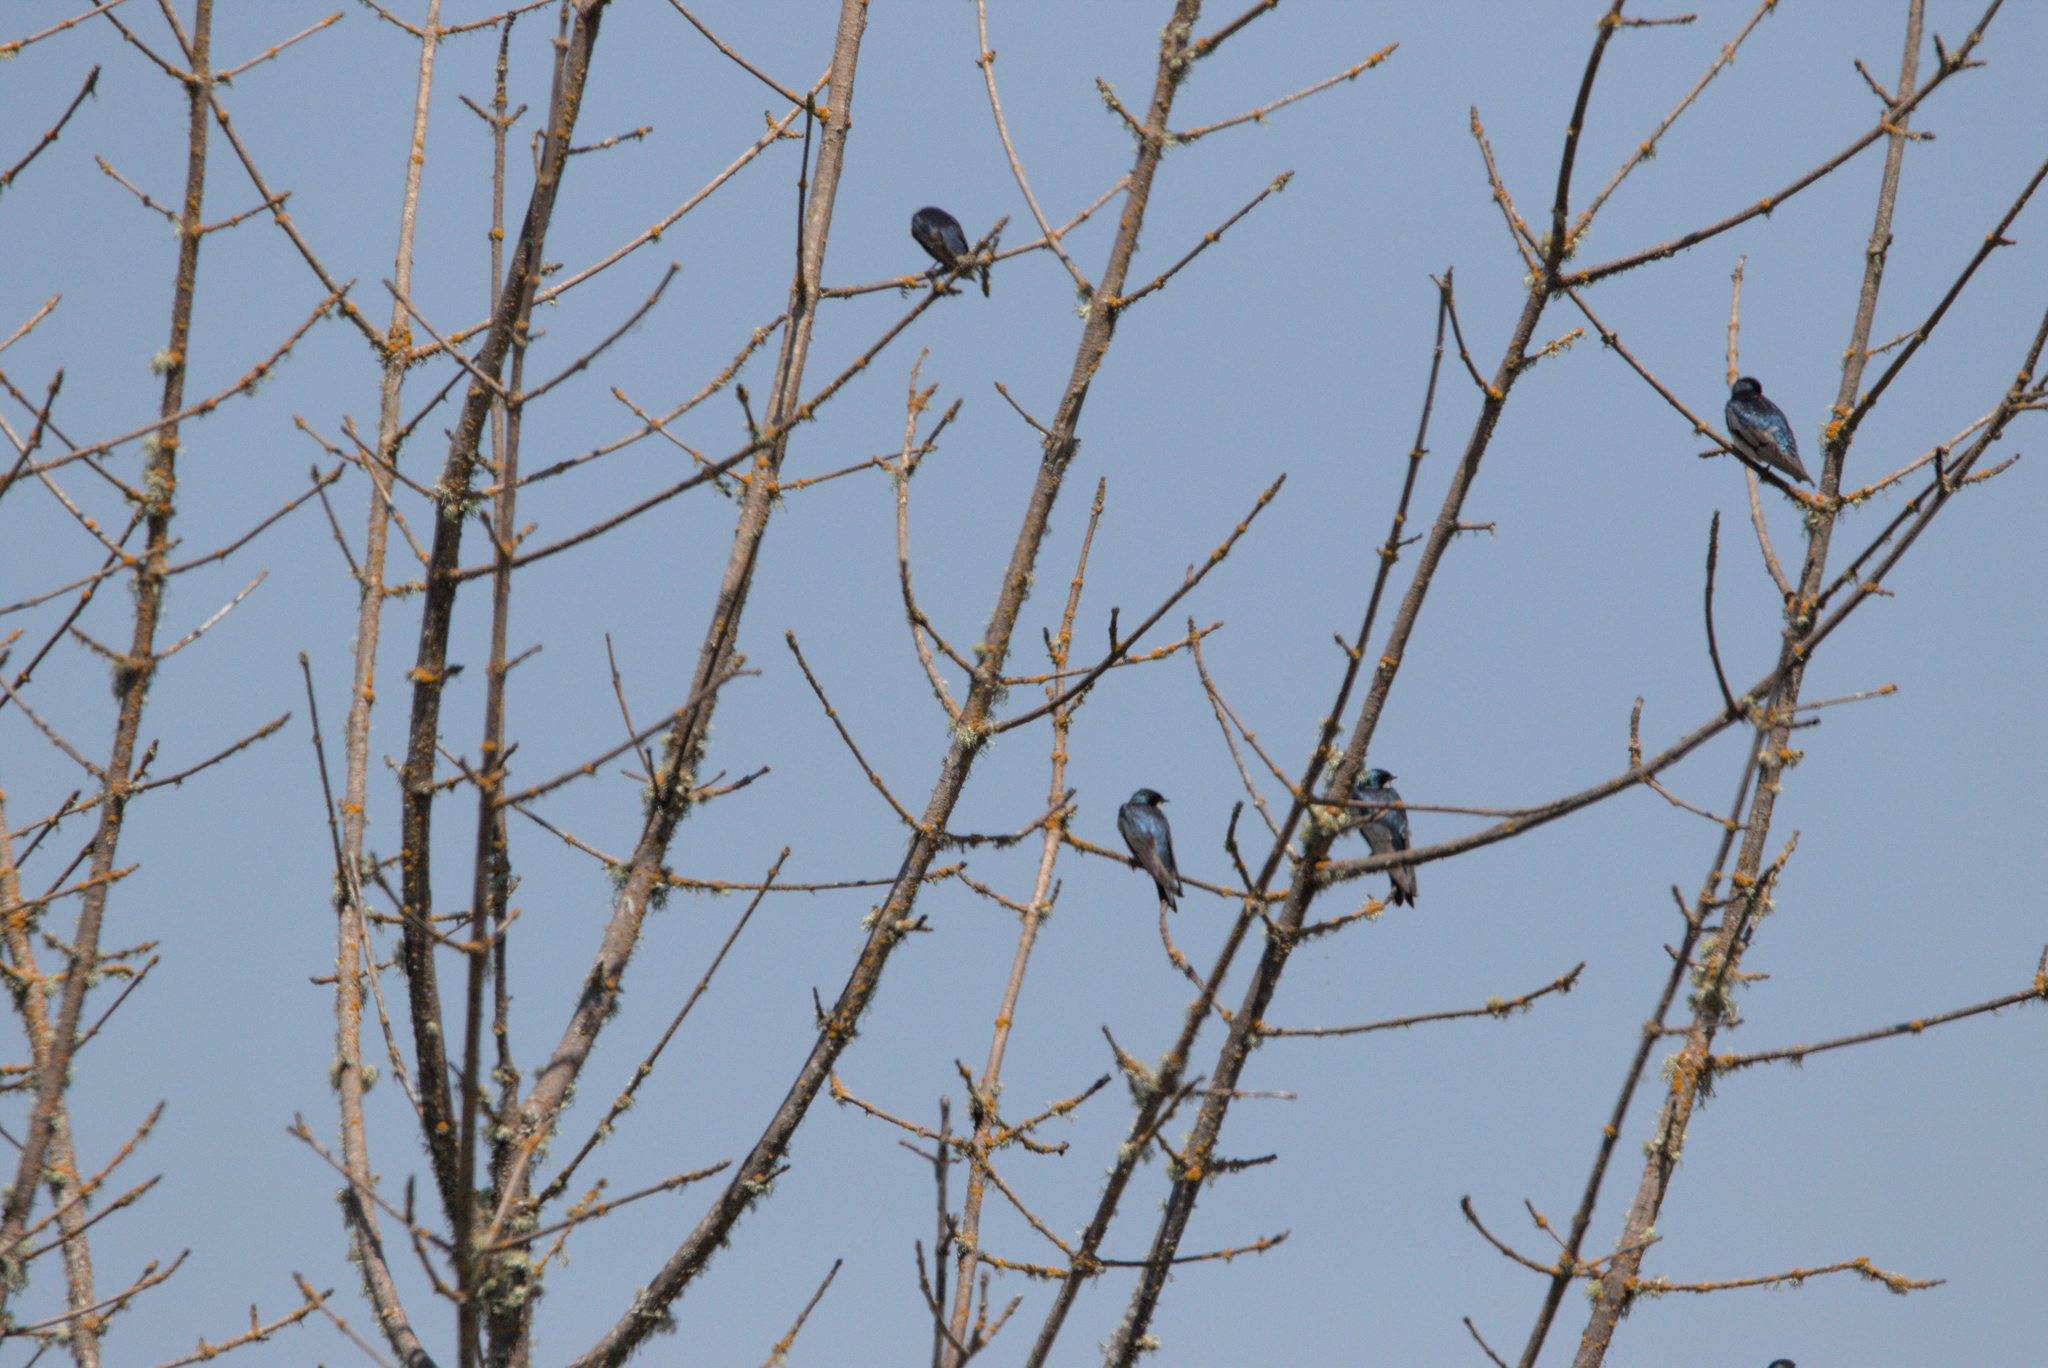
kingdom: Animalia
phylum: Chordata
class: Aves
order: Passeriformes
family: Hirundinidae
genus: Tachycineta
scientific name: Tachycineta bicolor
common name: Tree swallow
